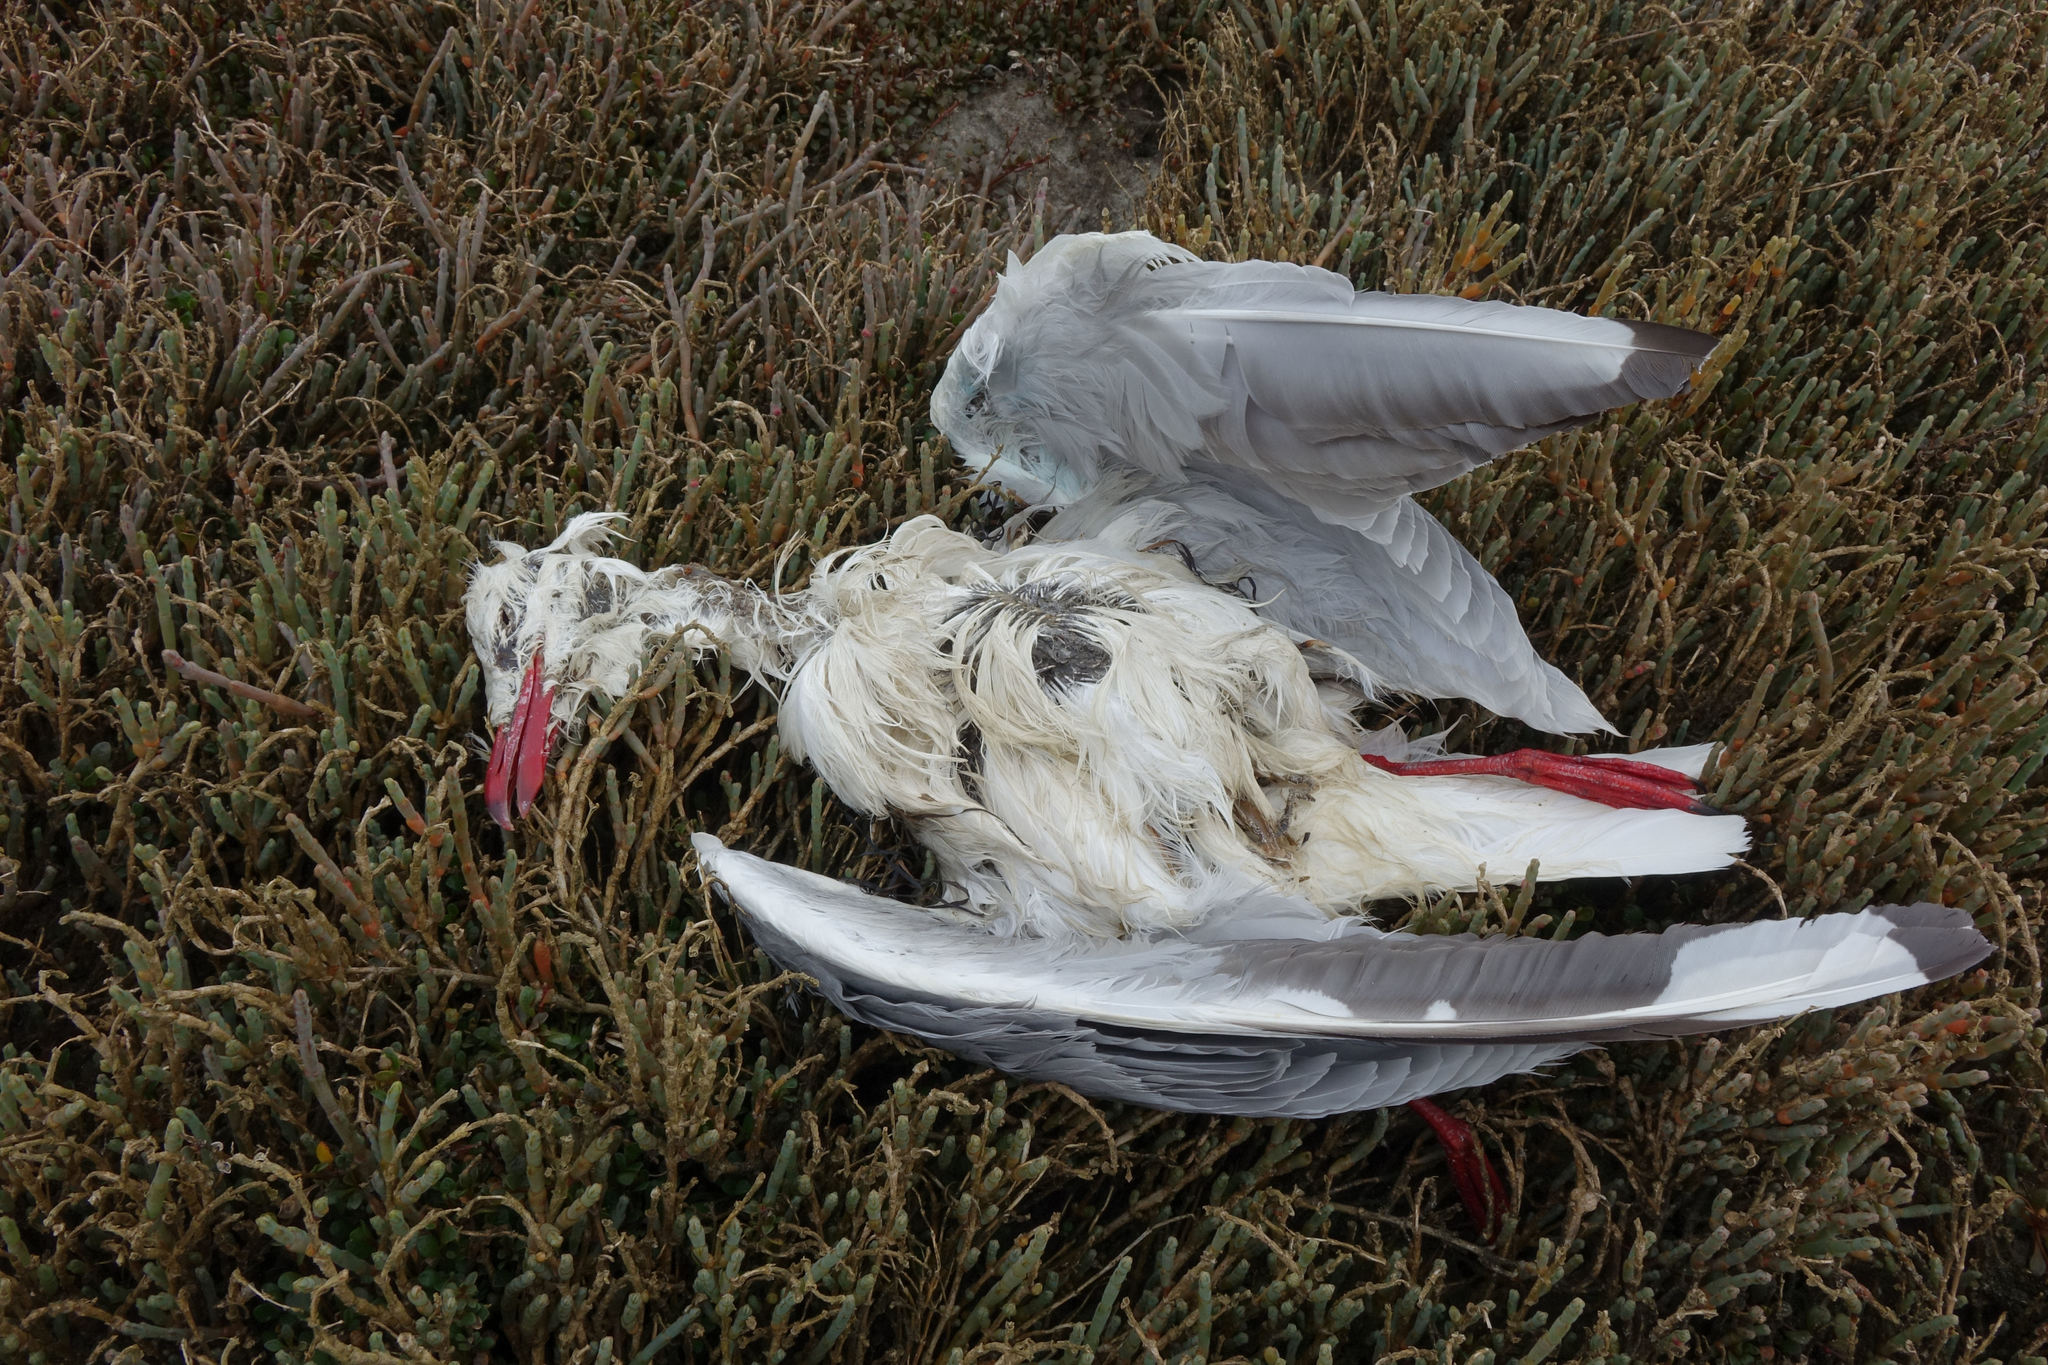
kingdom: Animalia
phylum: Chordata
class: Aves
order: Charadriiformes
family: Laridae
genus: Chroicocephalus
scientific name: Chroicocephalus novaehollandiae
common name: Silver gull
